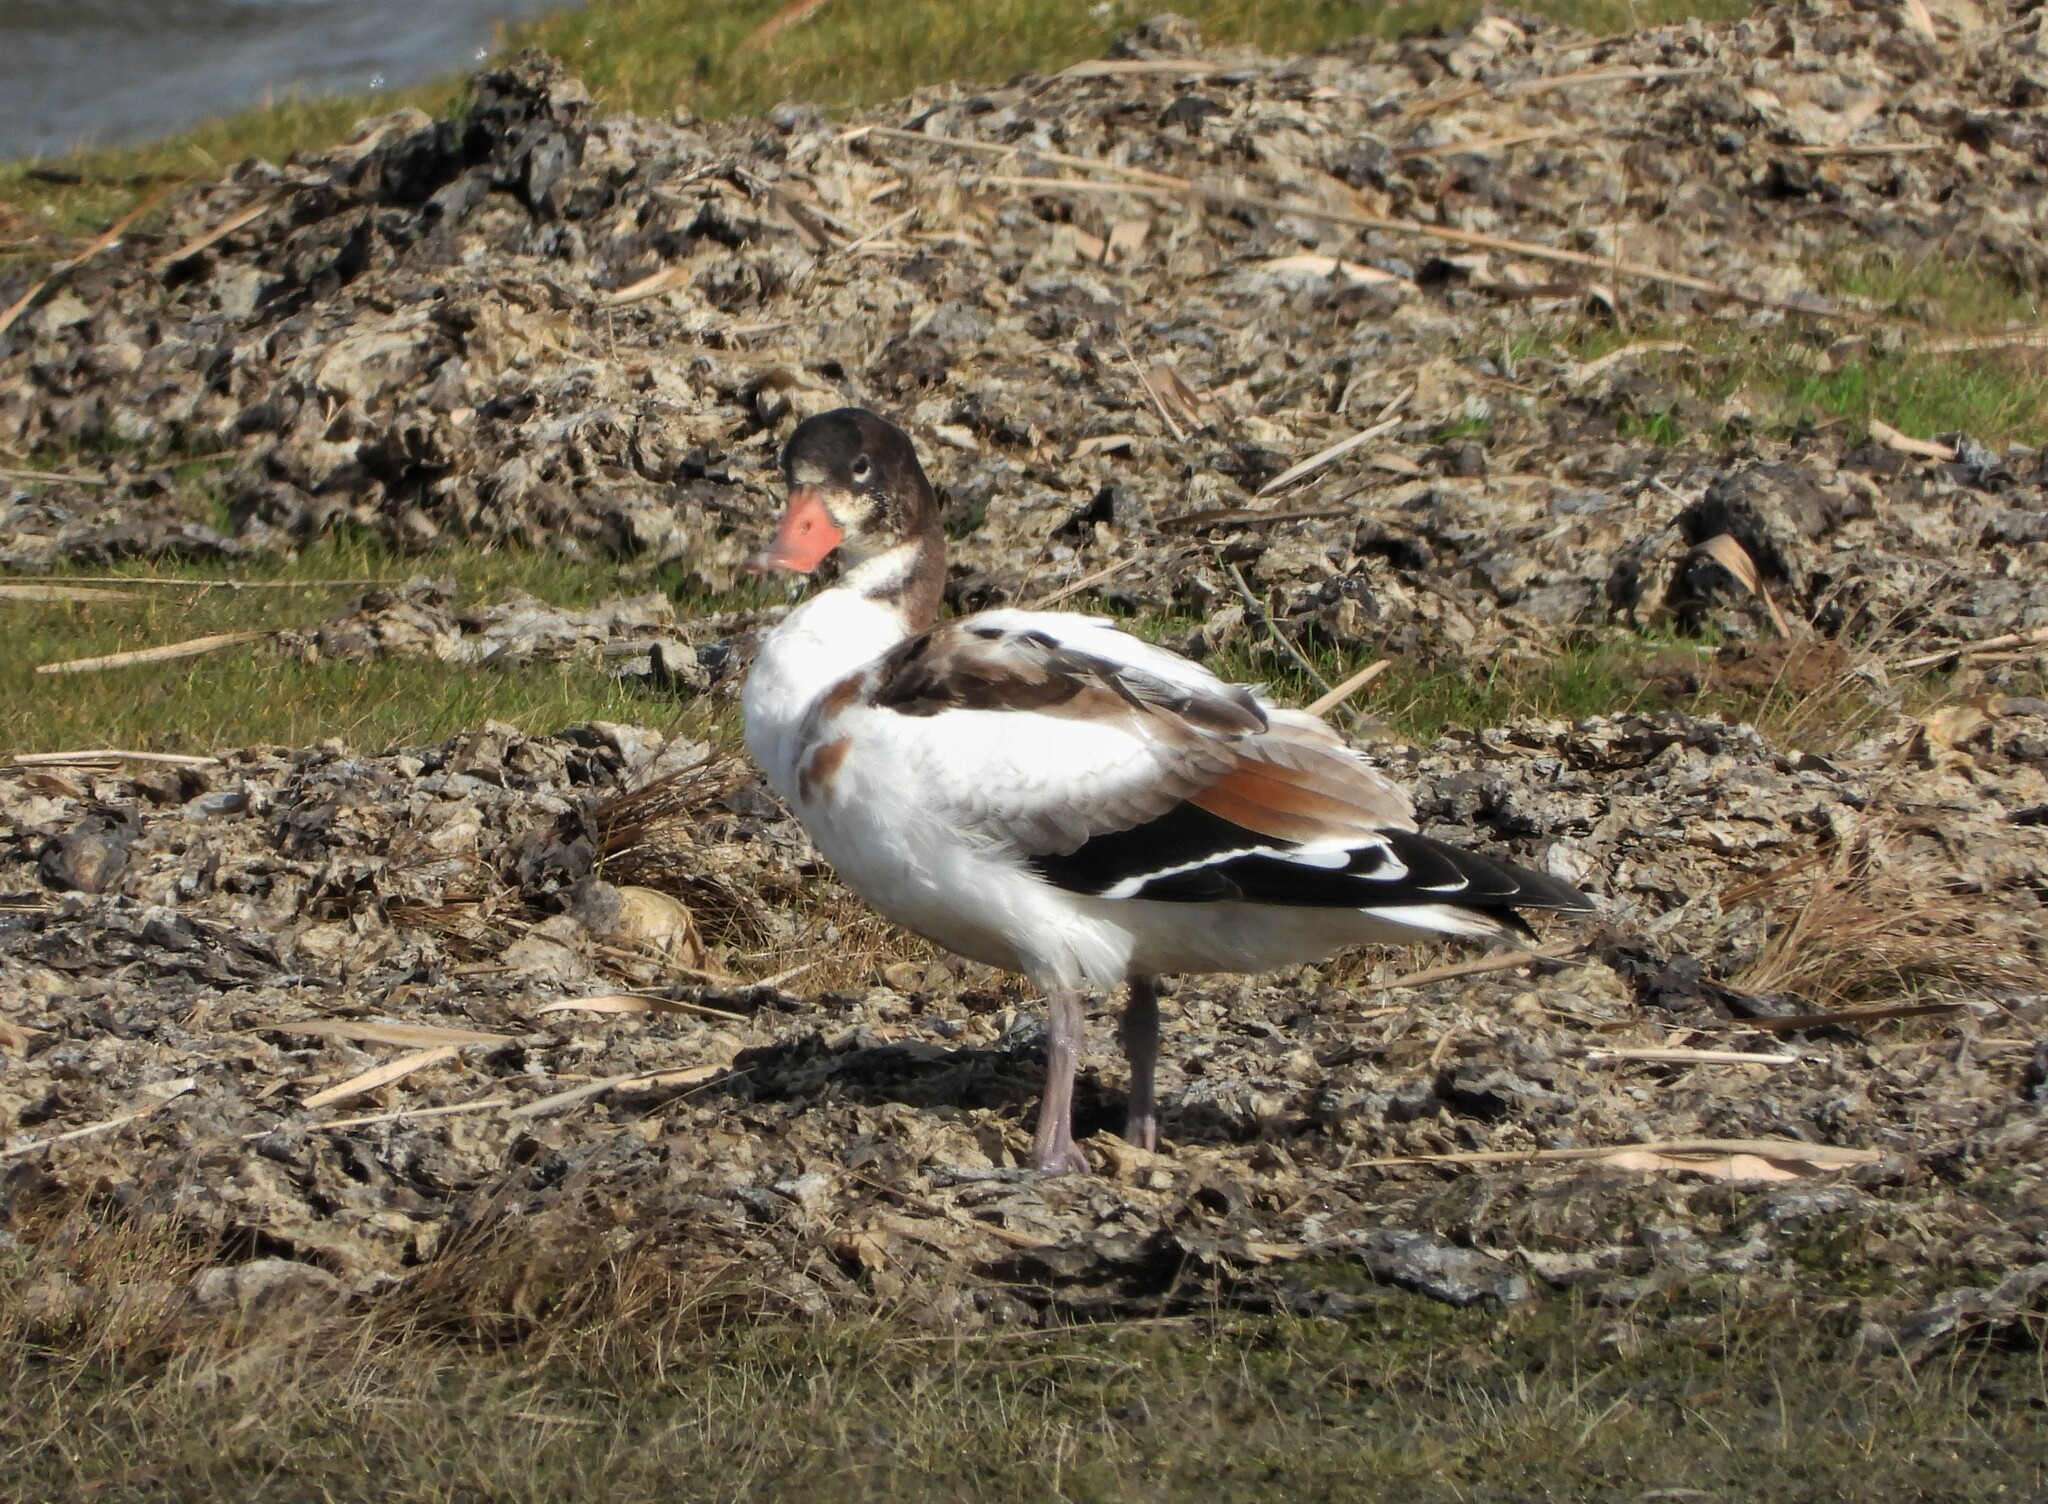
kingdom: Animalia
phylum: Chordata
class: Aves
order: Anseriformes
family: Anatidae
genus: Tadorna
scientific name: Tadorna tadorna
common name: Common shelduck
